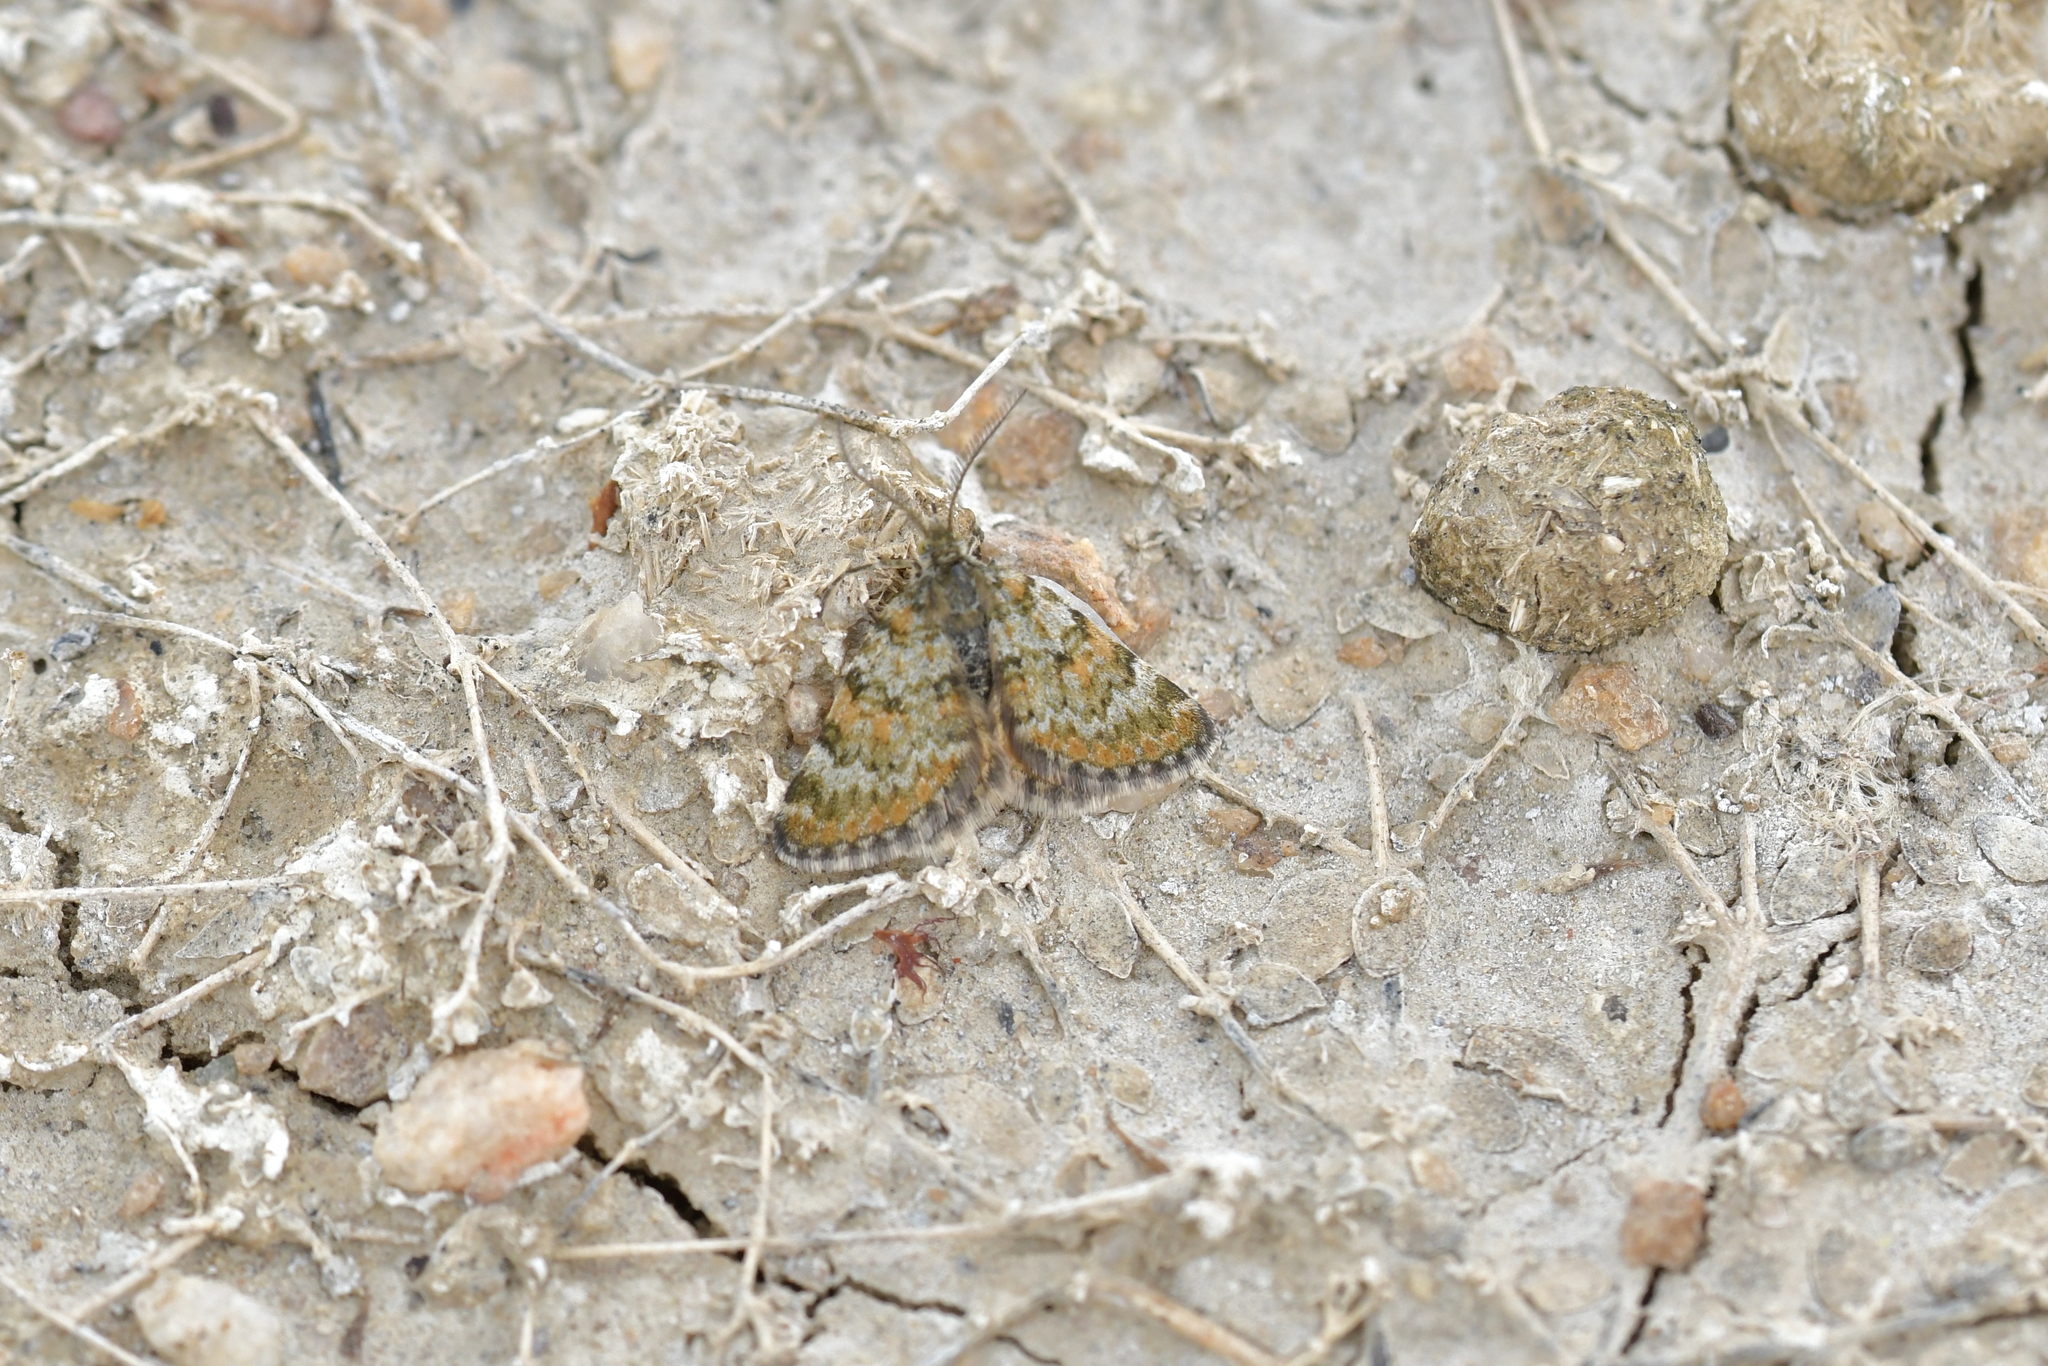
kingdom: Animalia
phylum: Arthropoda
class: Insecta
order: Lepidoptera
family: Geometridae
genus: Paranotoreas
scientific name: Paranotoreas fulva
